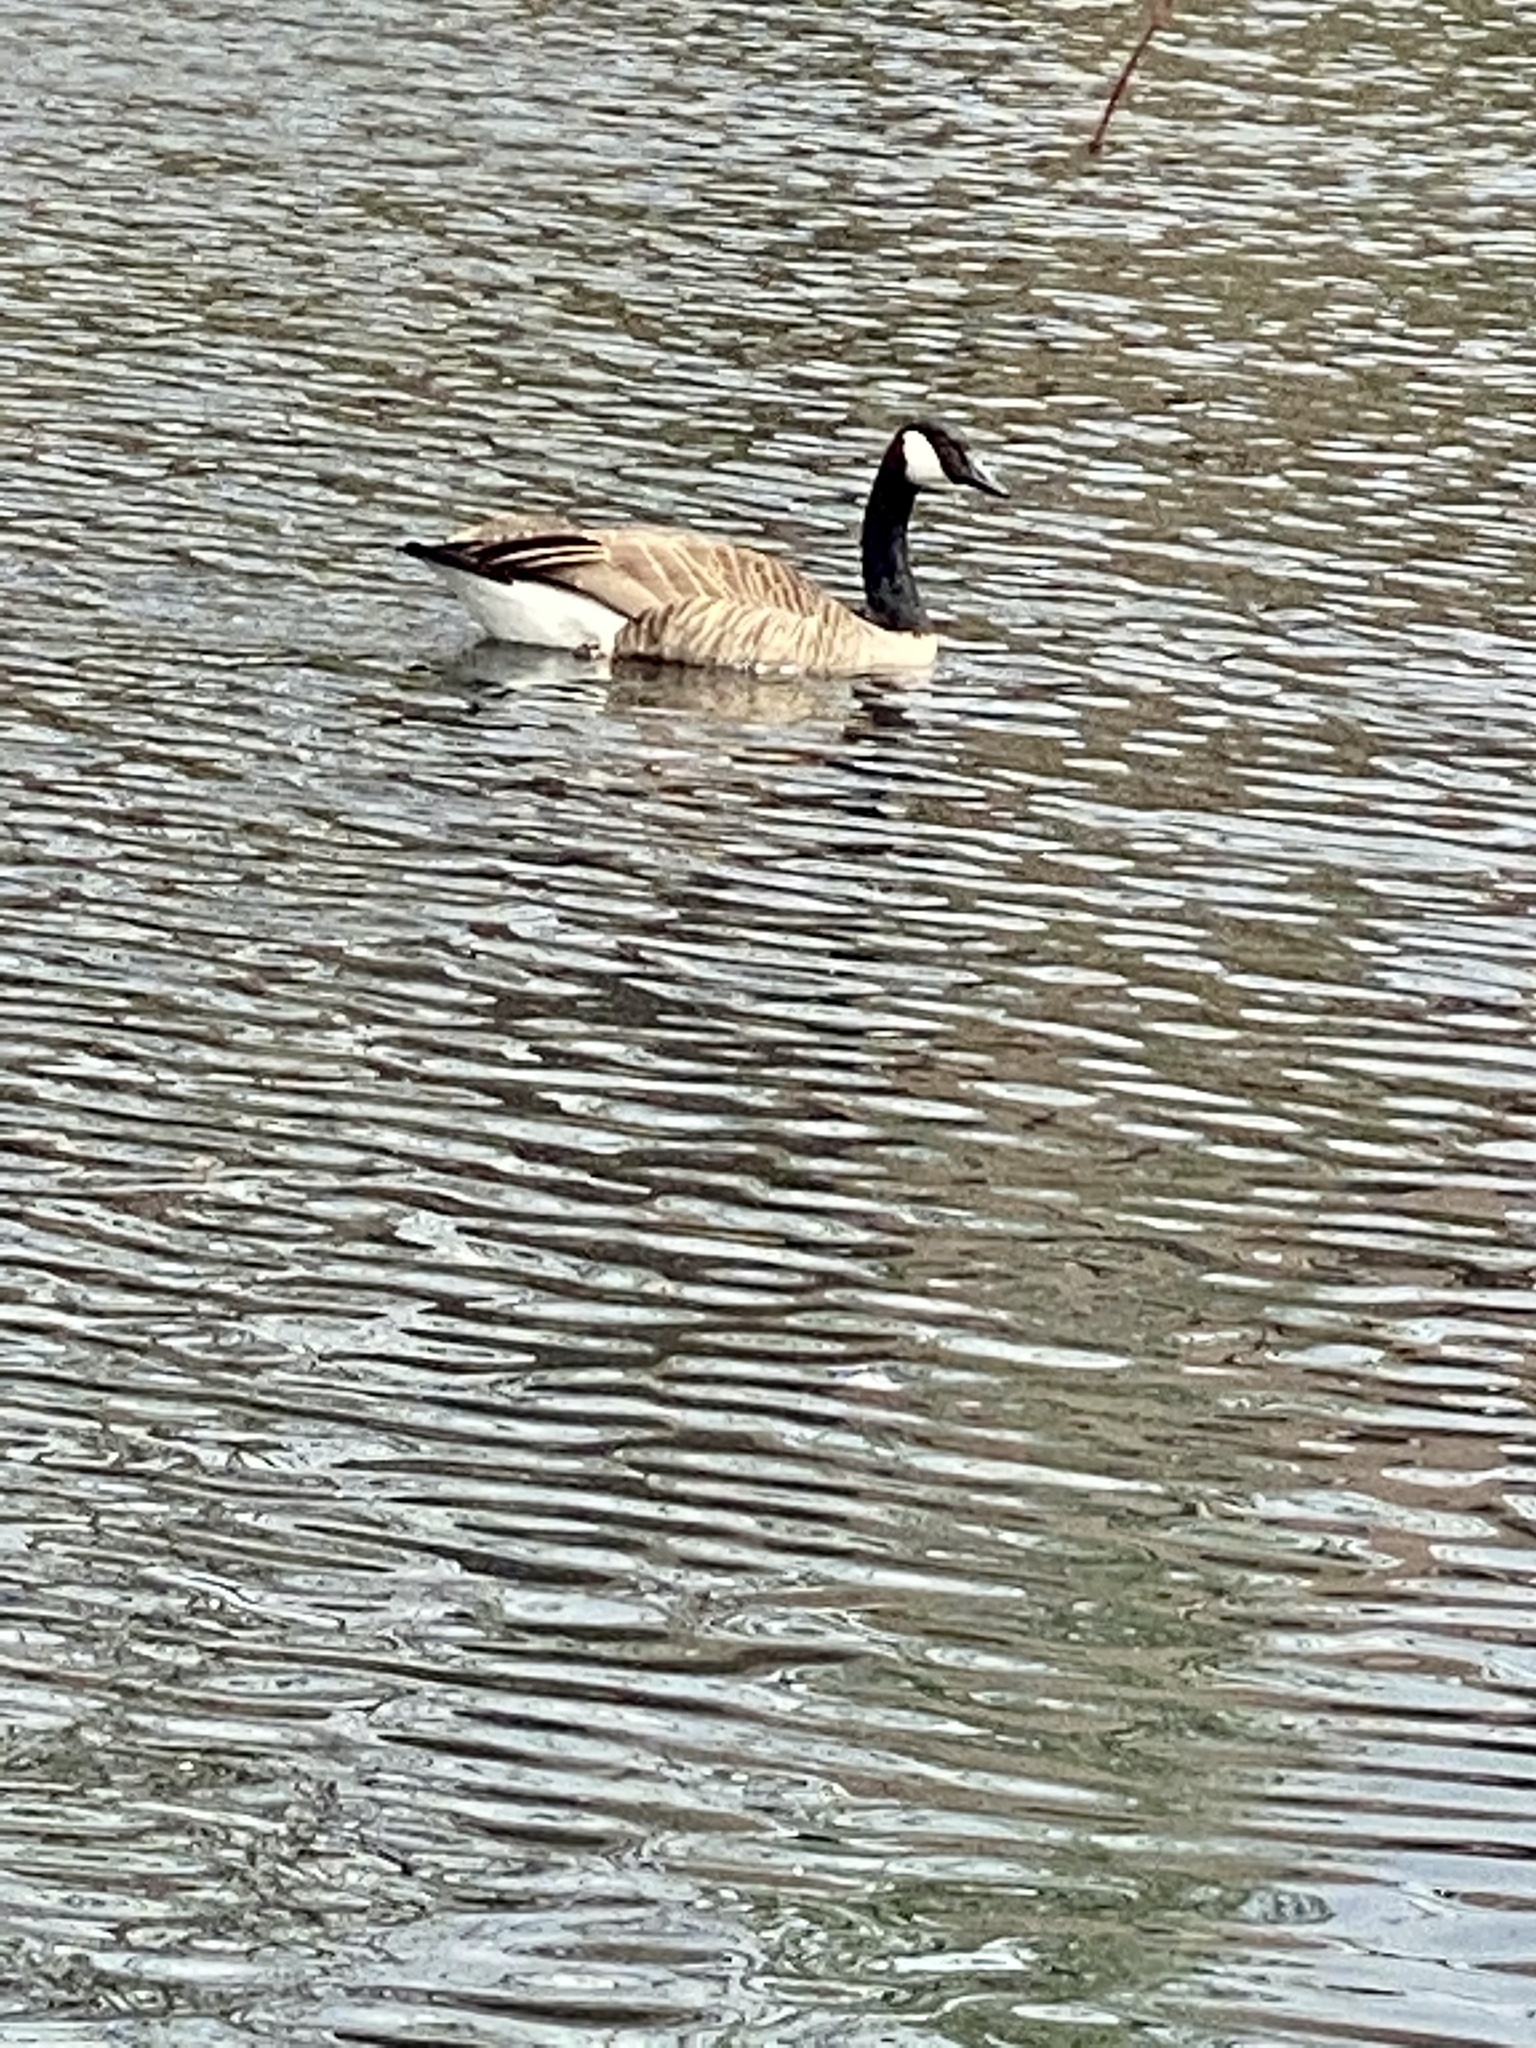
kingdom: Animalia
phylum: Chordata
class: Aves
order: Anseriformes
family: Anatidae
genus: Branta
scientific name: Branta canadensis
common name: Canada goose
